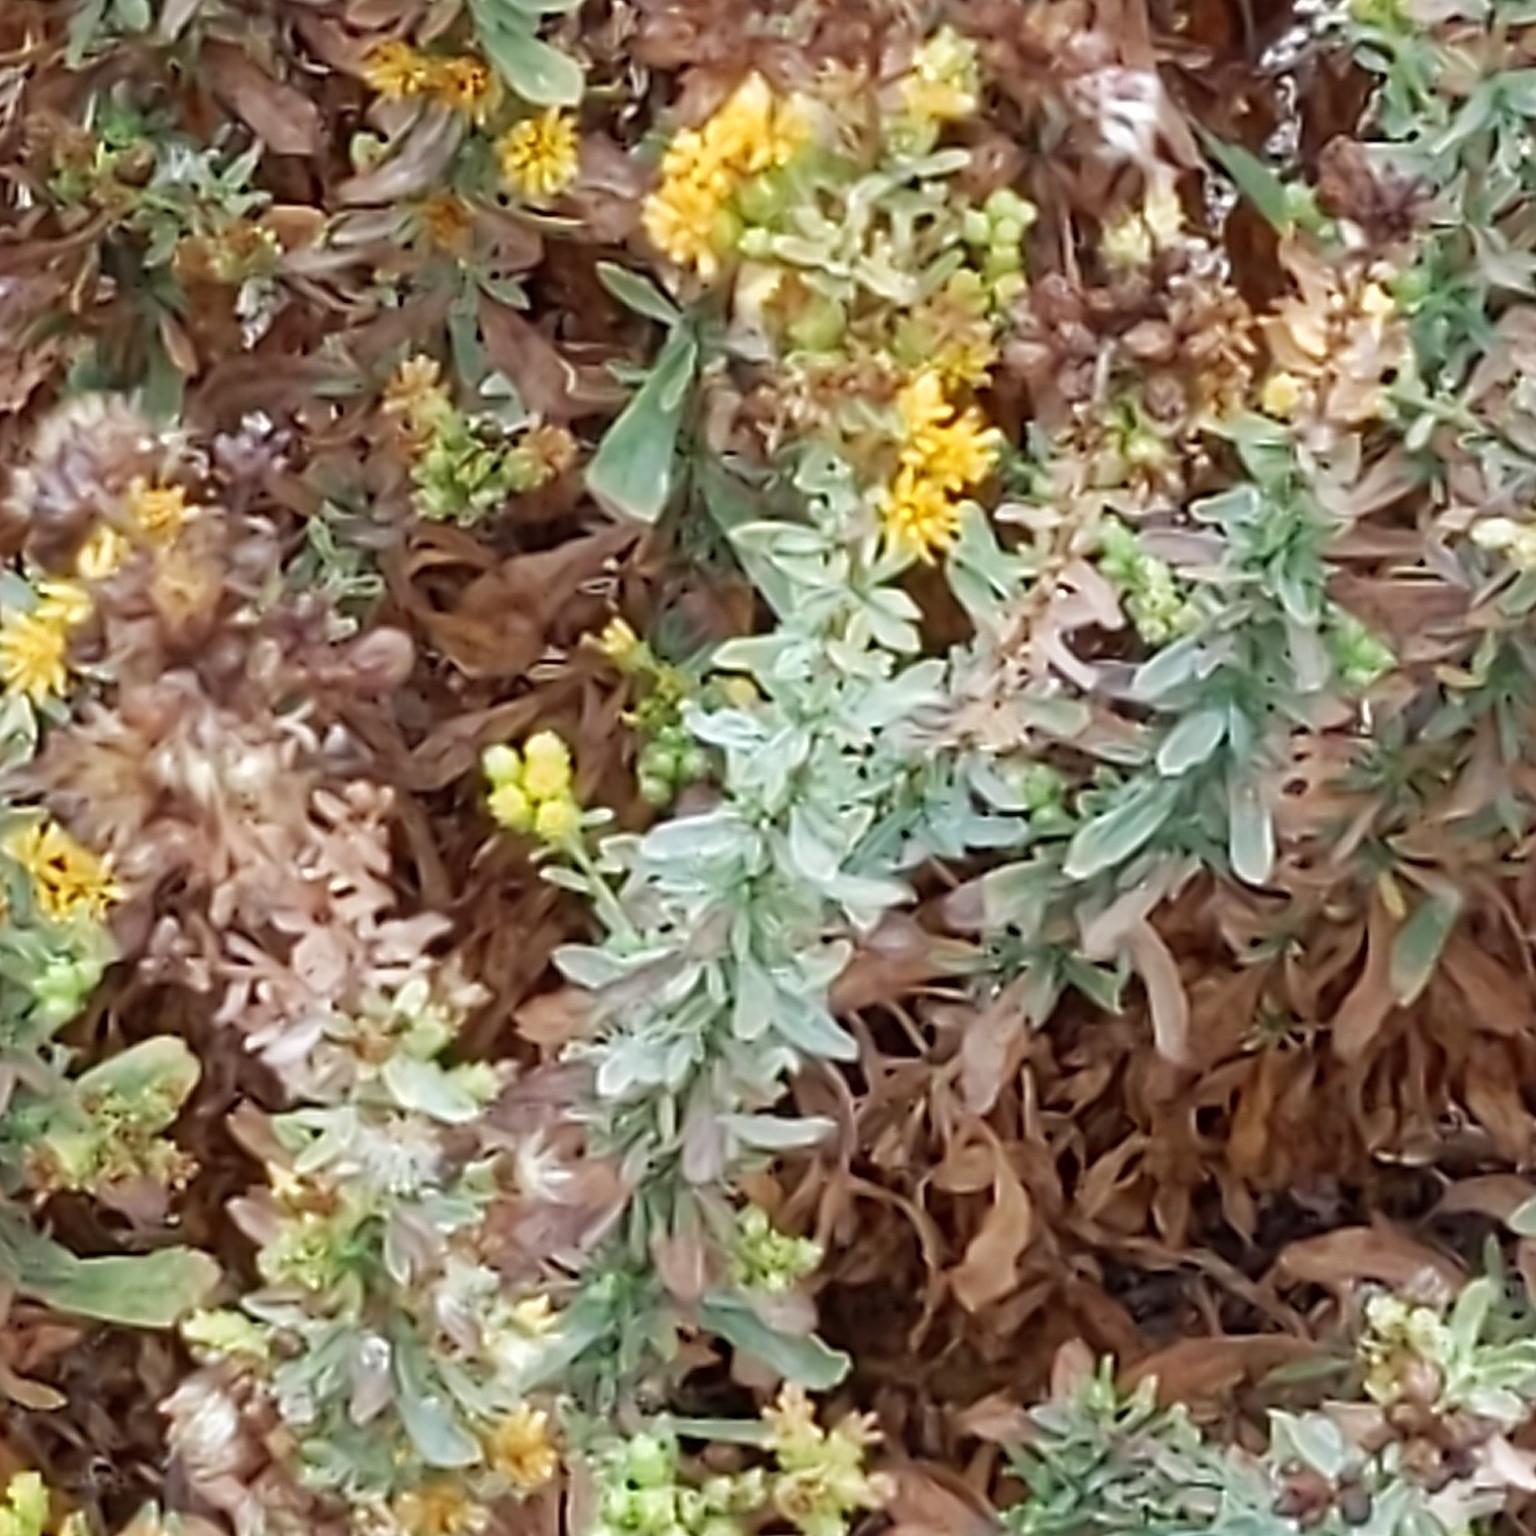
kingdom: Plantae
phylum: Tracheophyta
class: Magnoliopsida
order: Asterales
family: Asteraceae
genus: Isocoma
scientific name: Isocoma menziesii
